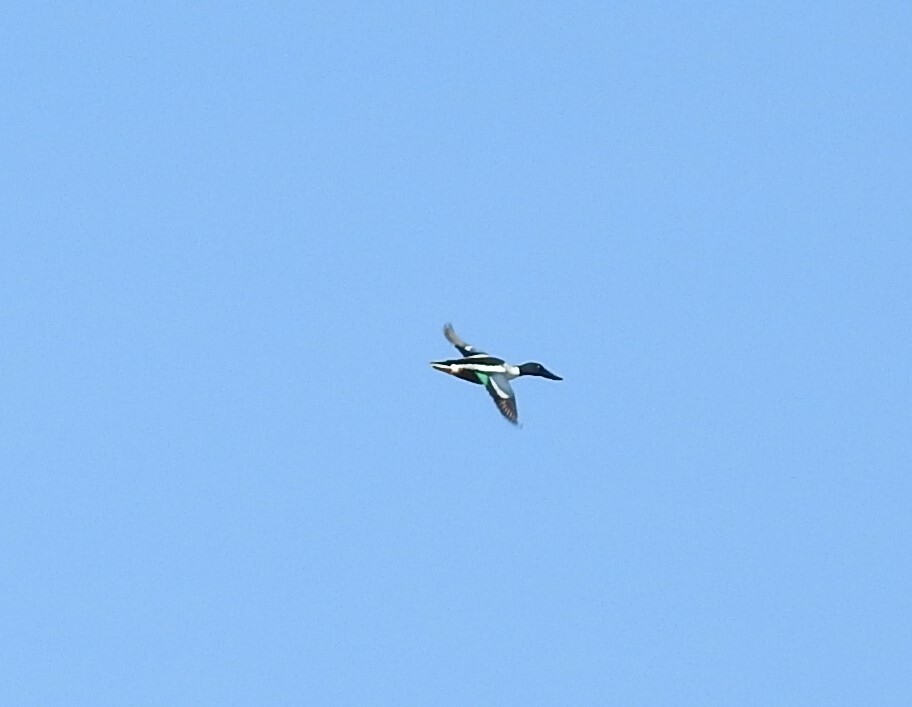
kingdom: Animalia
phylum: Chordata
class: Aves
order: Anseriformes
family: Anatidae
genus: Spatula
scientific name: Spatula clypeata
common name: Northern shoveler
